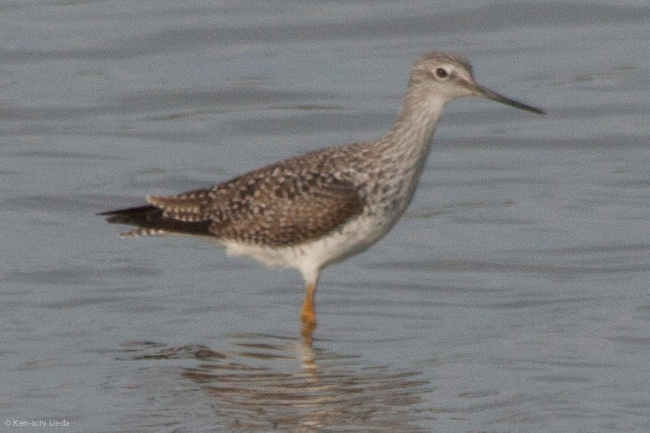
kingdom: Animalia
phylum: Chordata
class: Aves
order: Charadriiformes
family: Scolopacidae
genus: Tringa
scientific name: Tringa melanoleuca
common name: Greater yellowlegs
